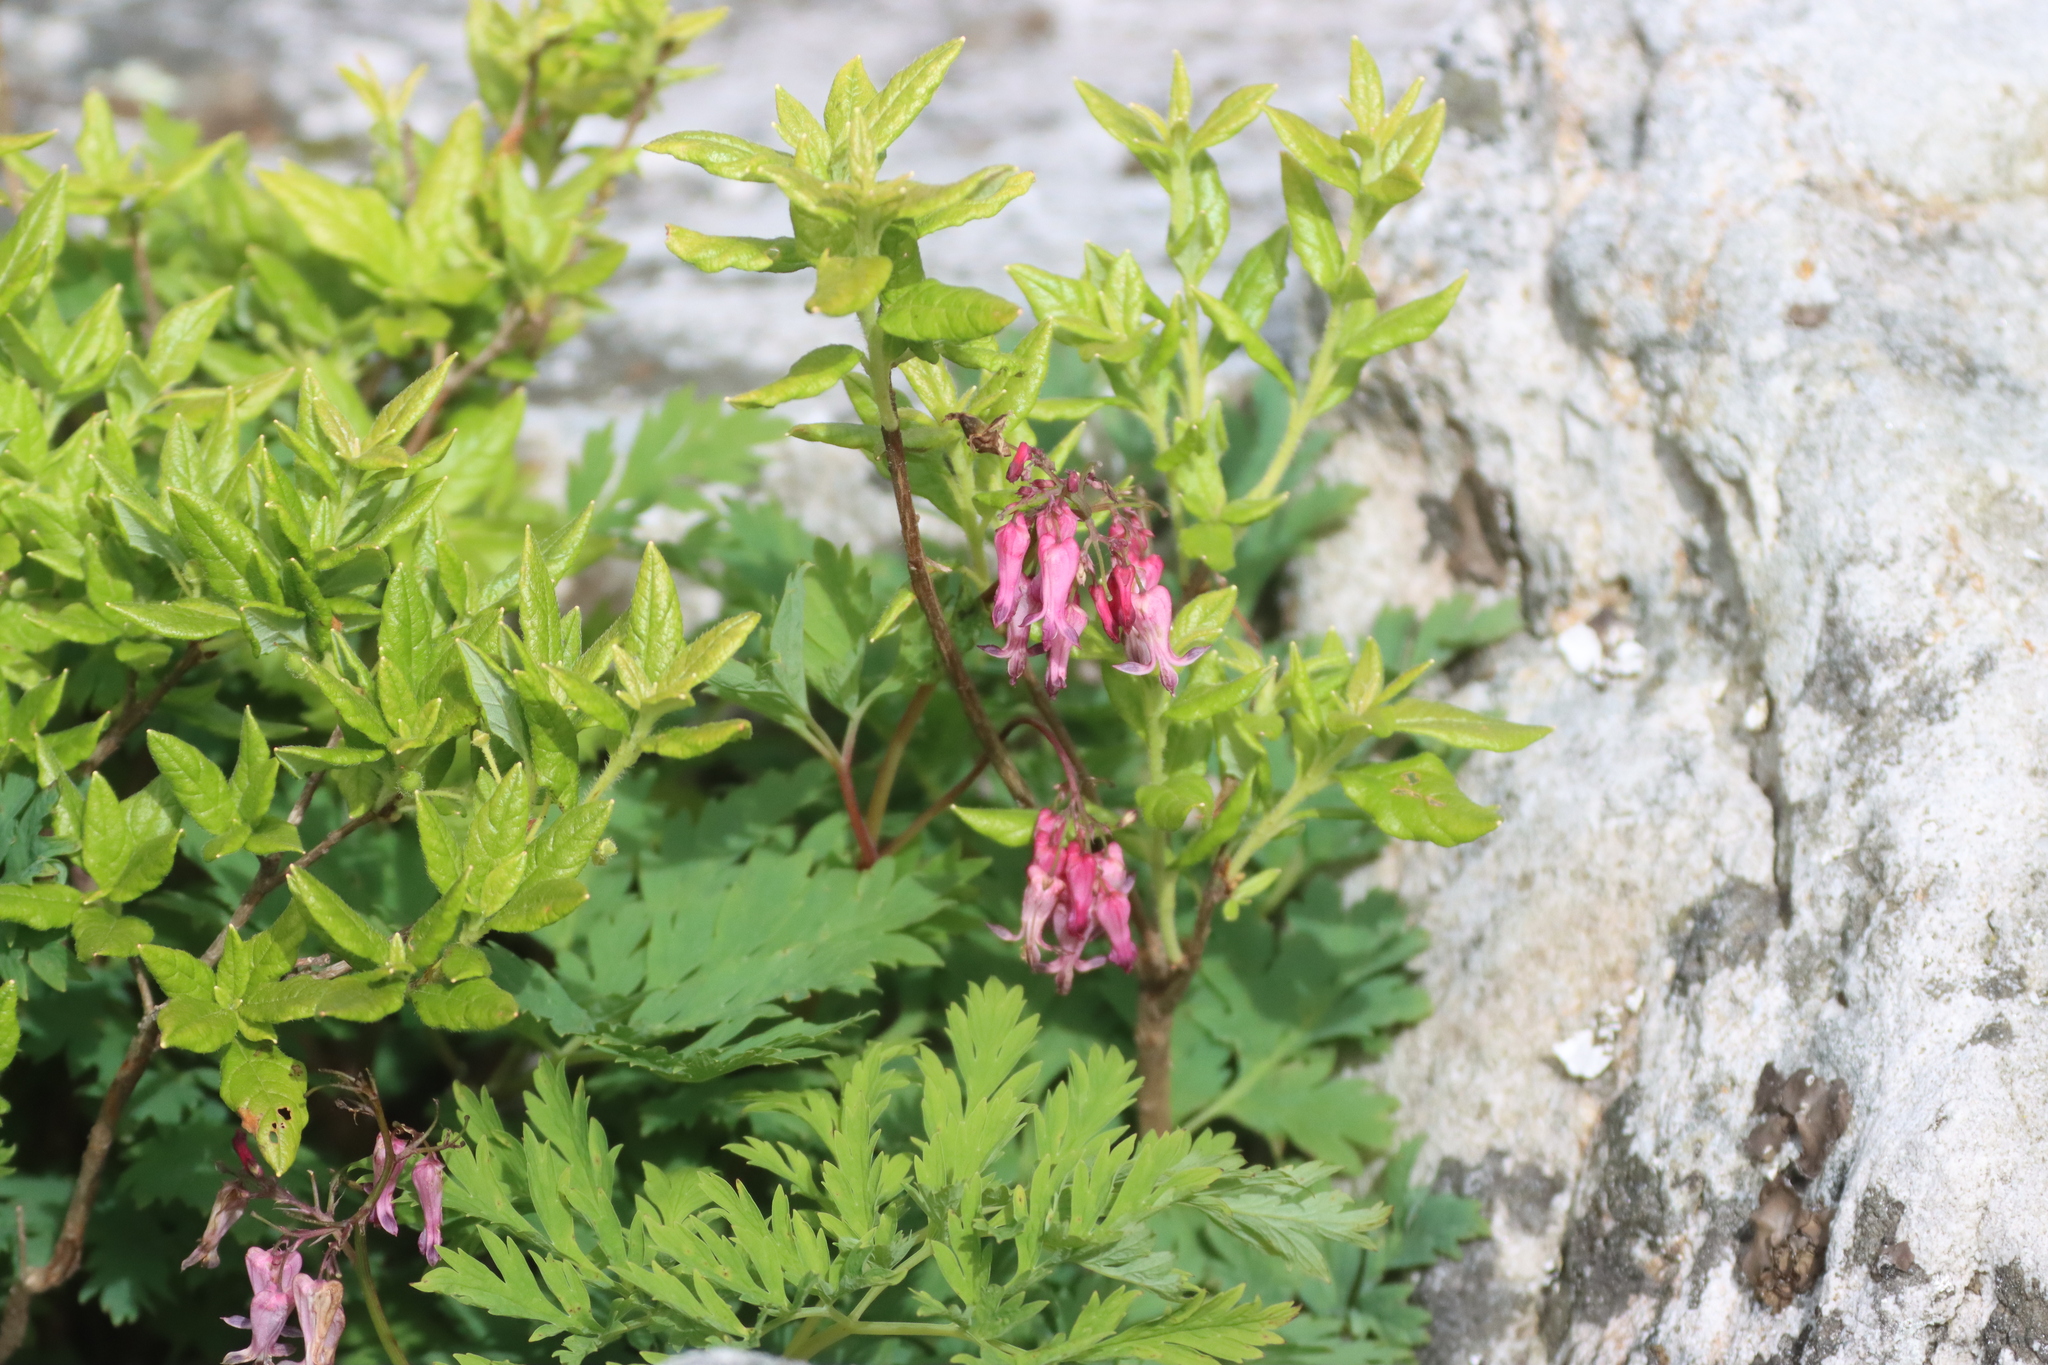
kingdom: Plantae
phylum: Tracheophyta
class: Magnoliopsida
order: Ranunculales
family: Papaveraceae
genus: Dicentra
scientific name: Dicentra eximia
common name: Turkey-corn
